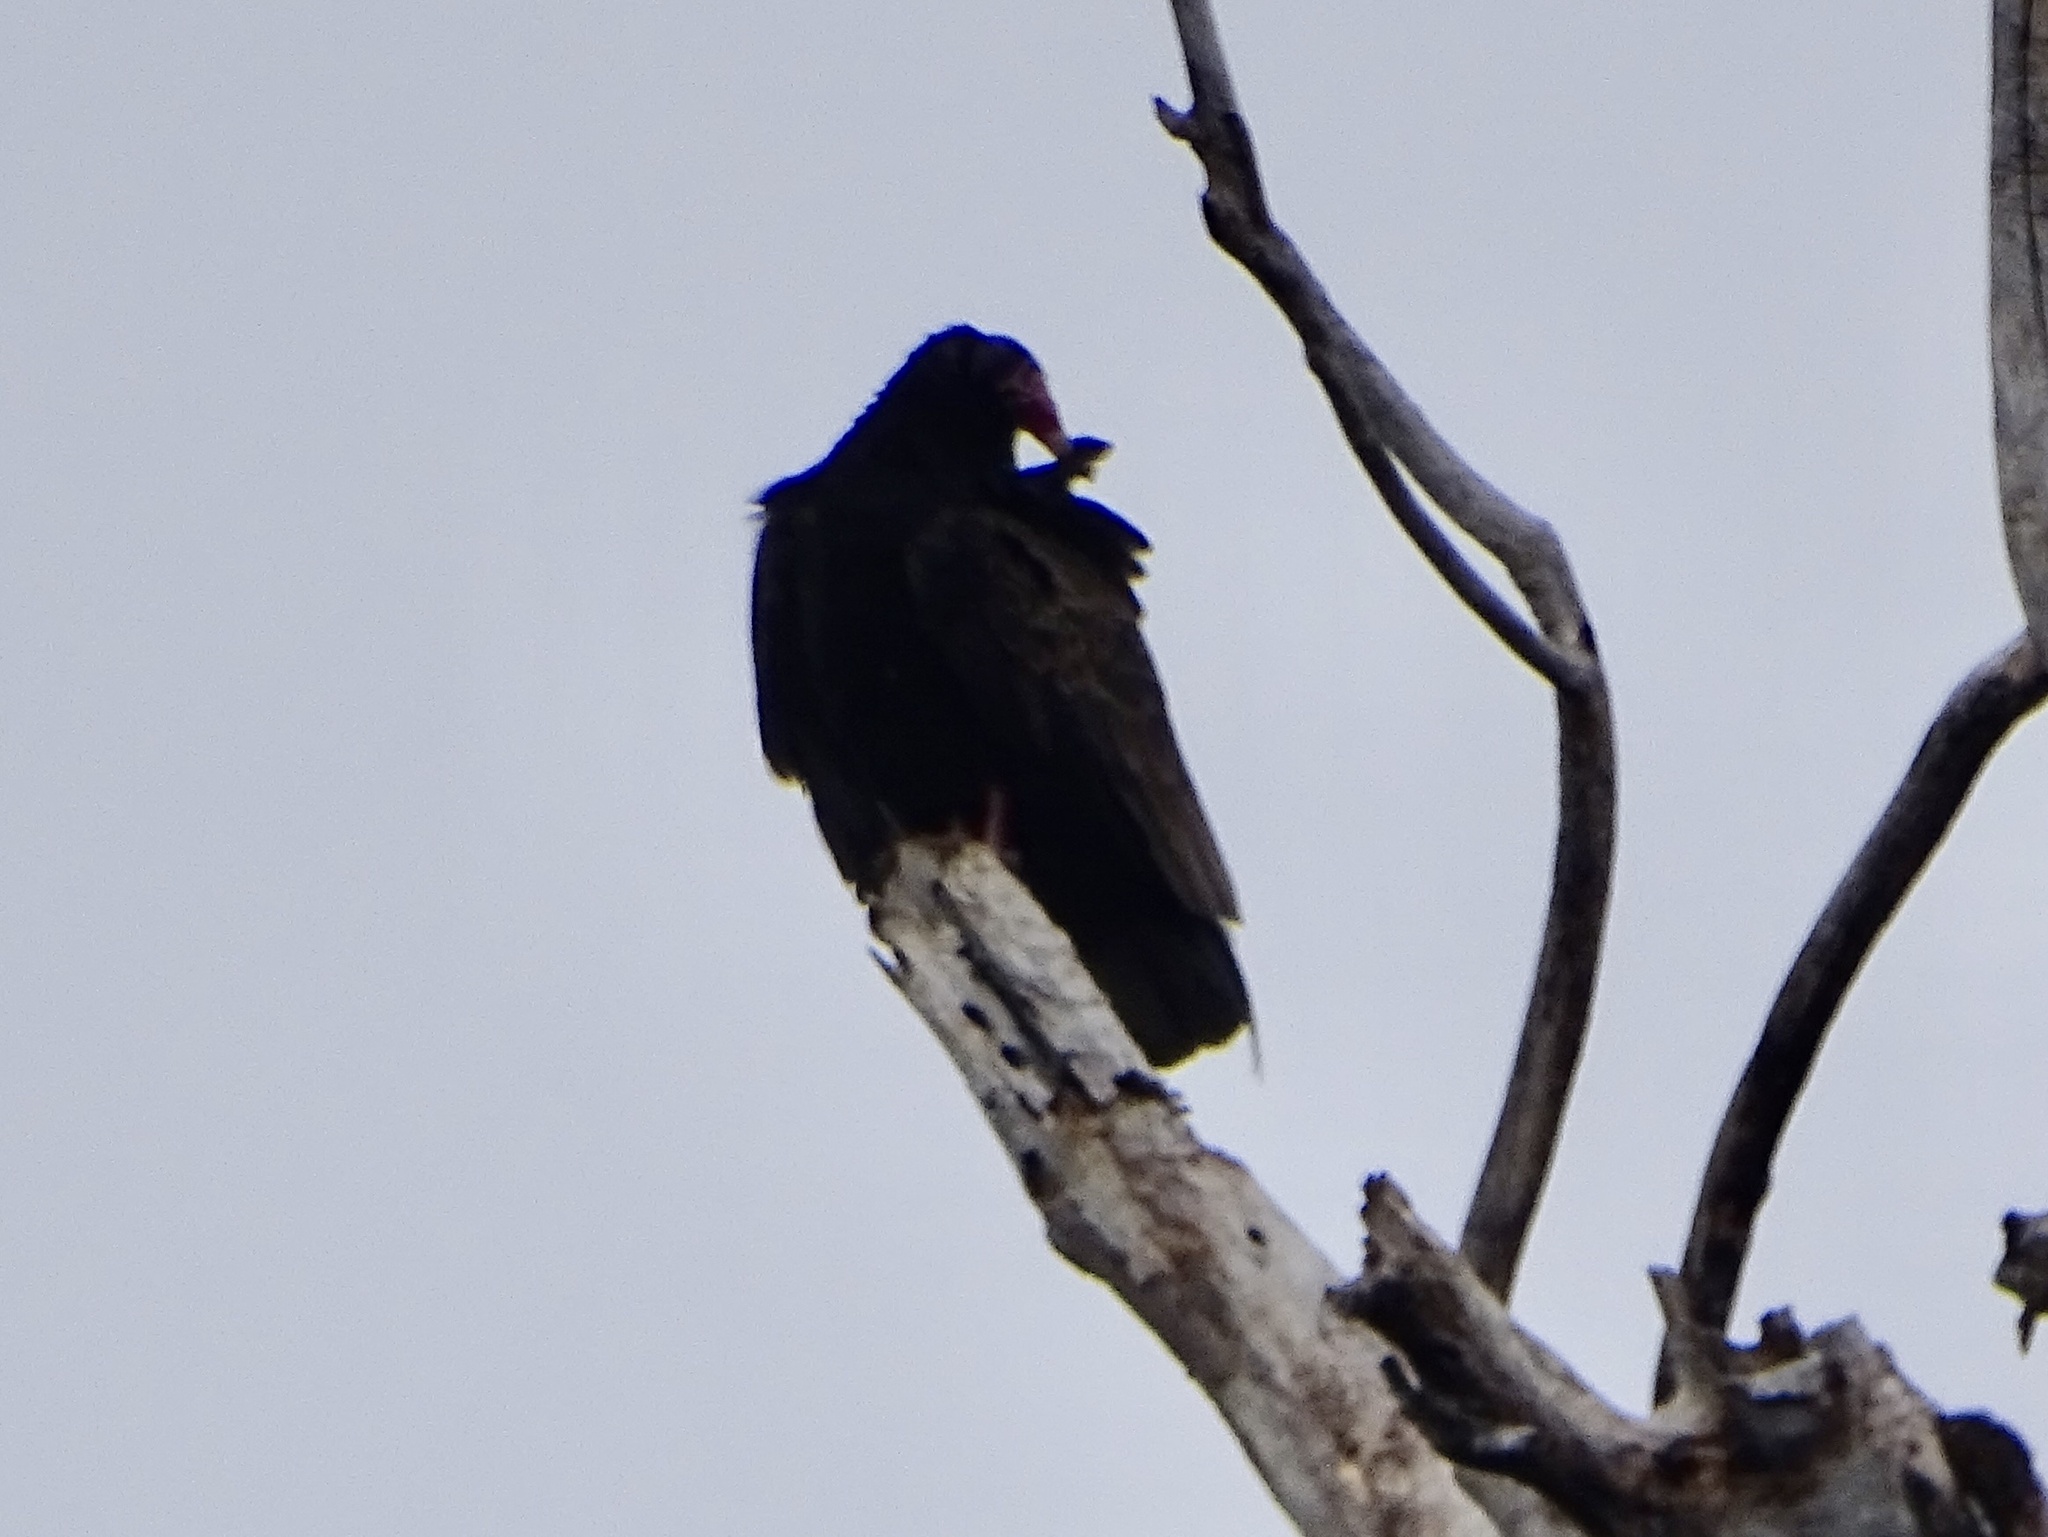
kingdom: Animalia
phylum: Chordata
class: Aves
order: Accipitriformes
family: Cathartidae
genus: Cathartes
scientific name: Cathartes aura
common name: Turkey vulture
